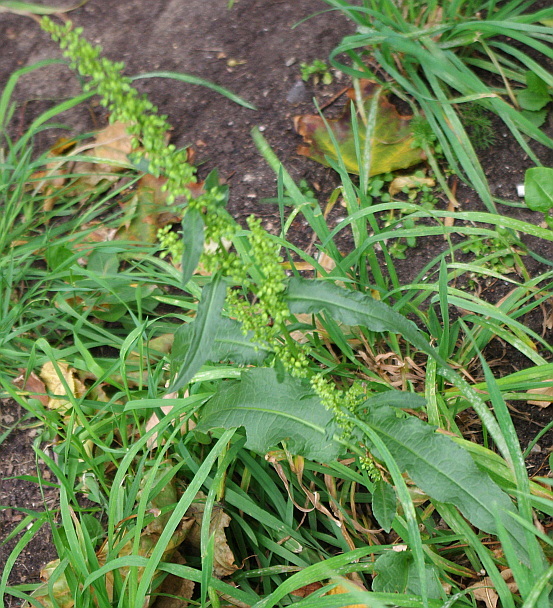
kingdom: Plantae
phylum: Tracheophyta
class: Magnoliopsida
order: Caryophyllales
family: Polygonaceae
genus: Rumex
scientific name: Rumex crispus
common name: Curled dock
